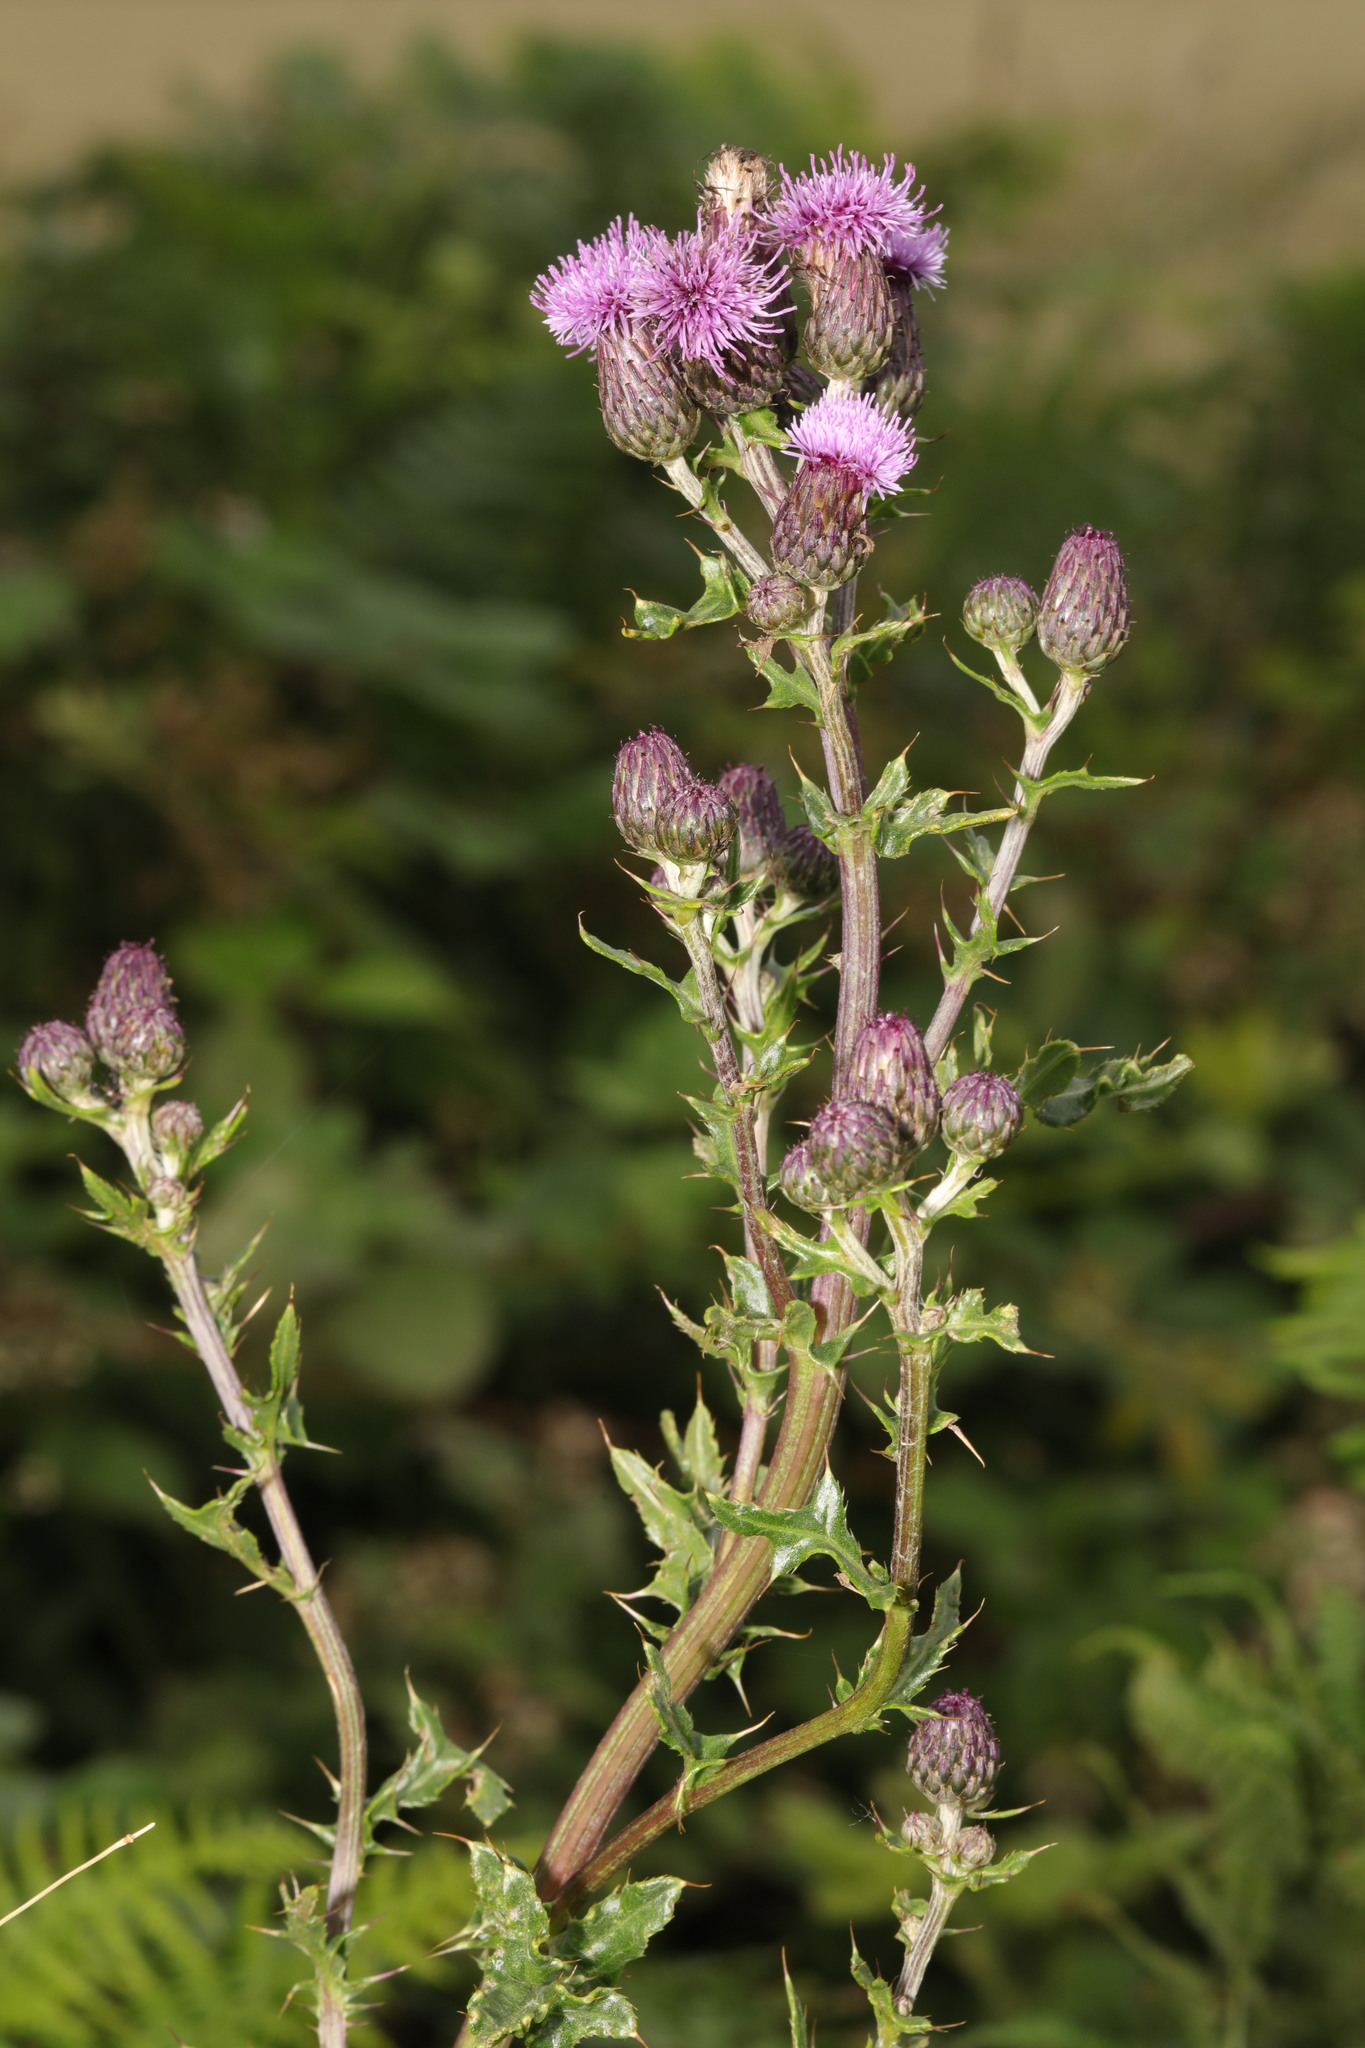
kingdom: Plantae
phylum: Tracheophyta
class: Magnoliopsida
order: Asterales
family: Asteraceae
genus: Cirsium
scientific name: Cirsium arvense
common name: Creeping thistle
